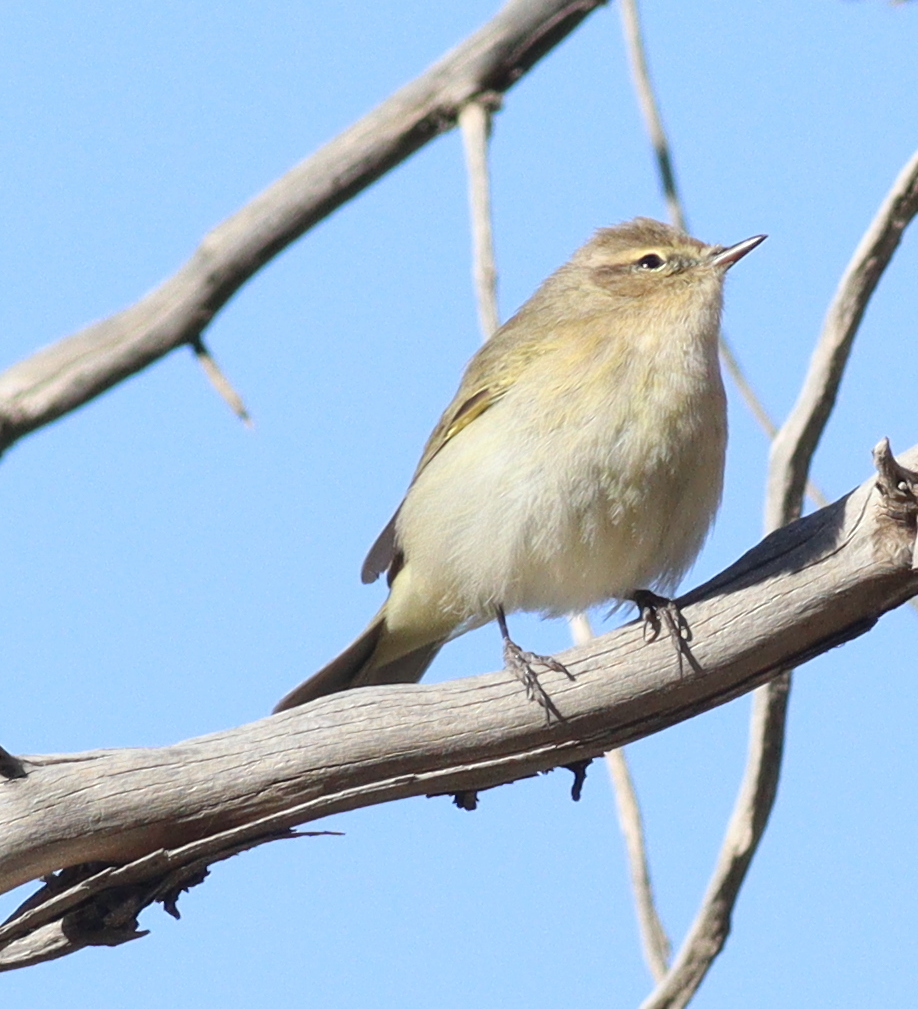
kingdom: Animalia
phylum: Chordata
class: Aves
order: Passeriformes
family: Phylloscopidae
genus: Phylloscopus
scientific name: Phylloscopus collybita
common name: Common chiffchaff
